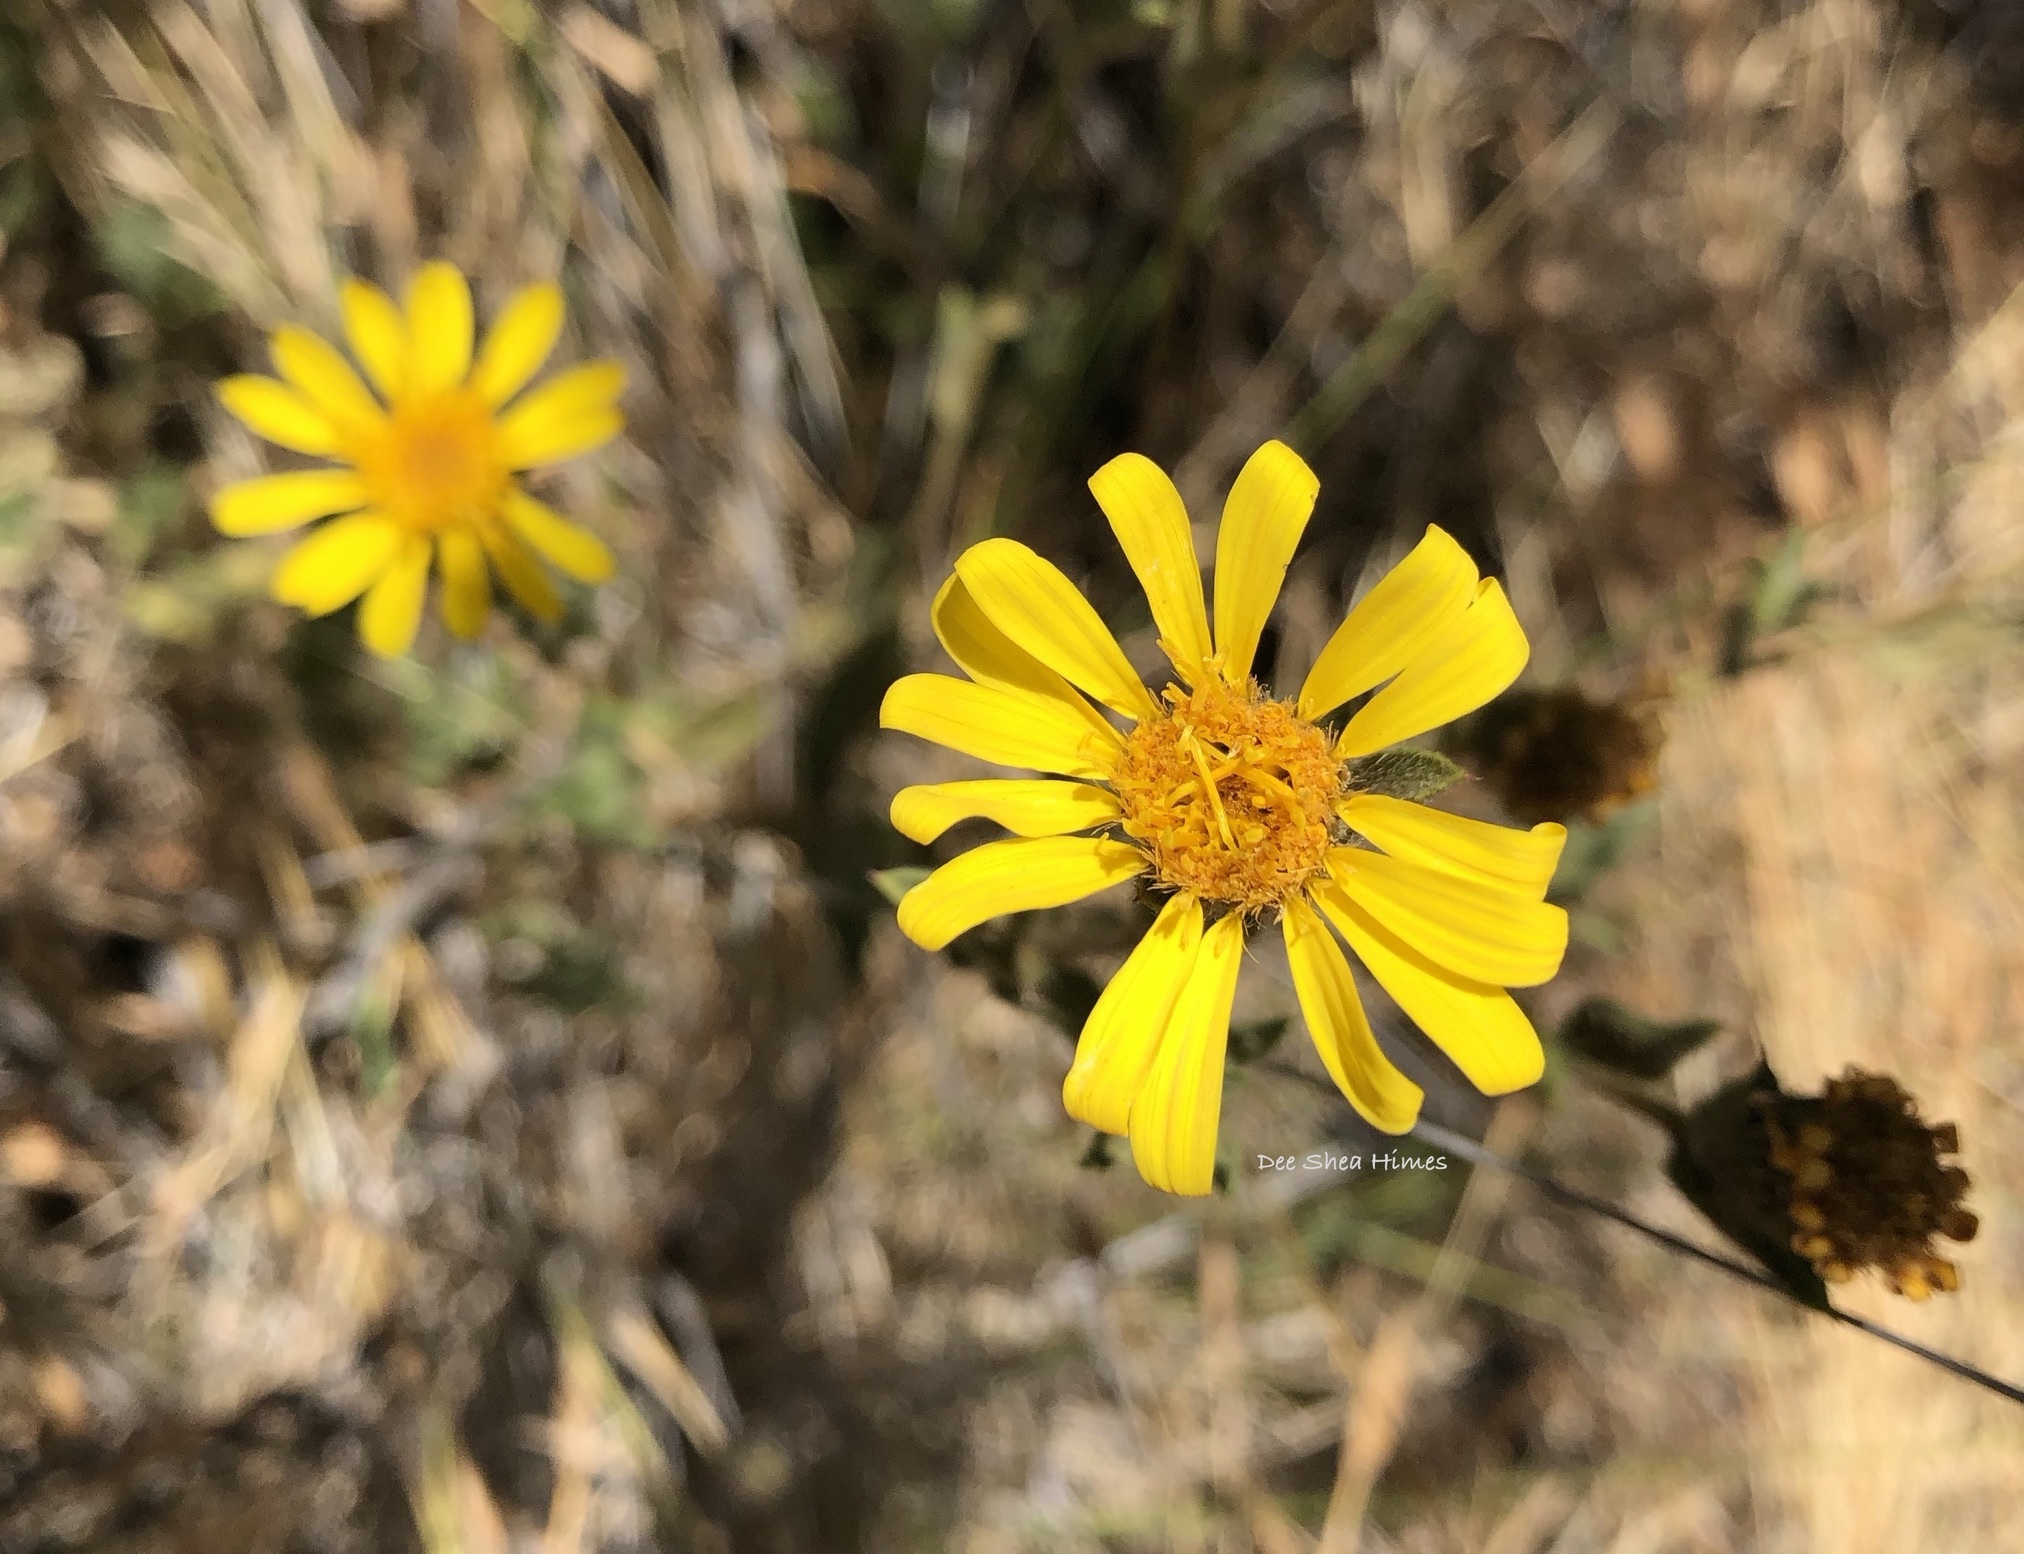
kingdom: Plantae
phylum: Tracheophyta
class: Magnoliopsida
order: Asterales
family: Asteraceae
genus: Heterotheca
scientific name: Heterotheca villosissima
